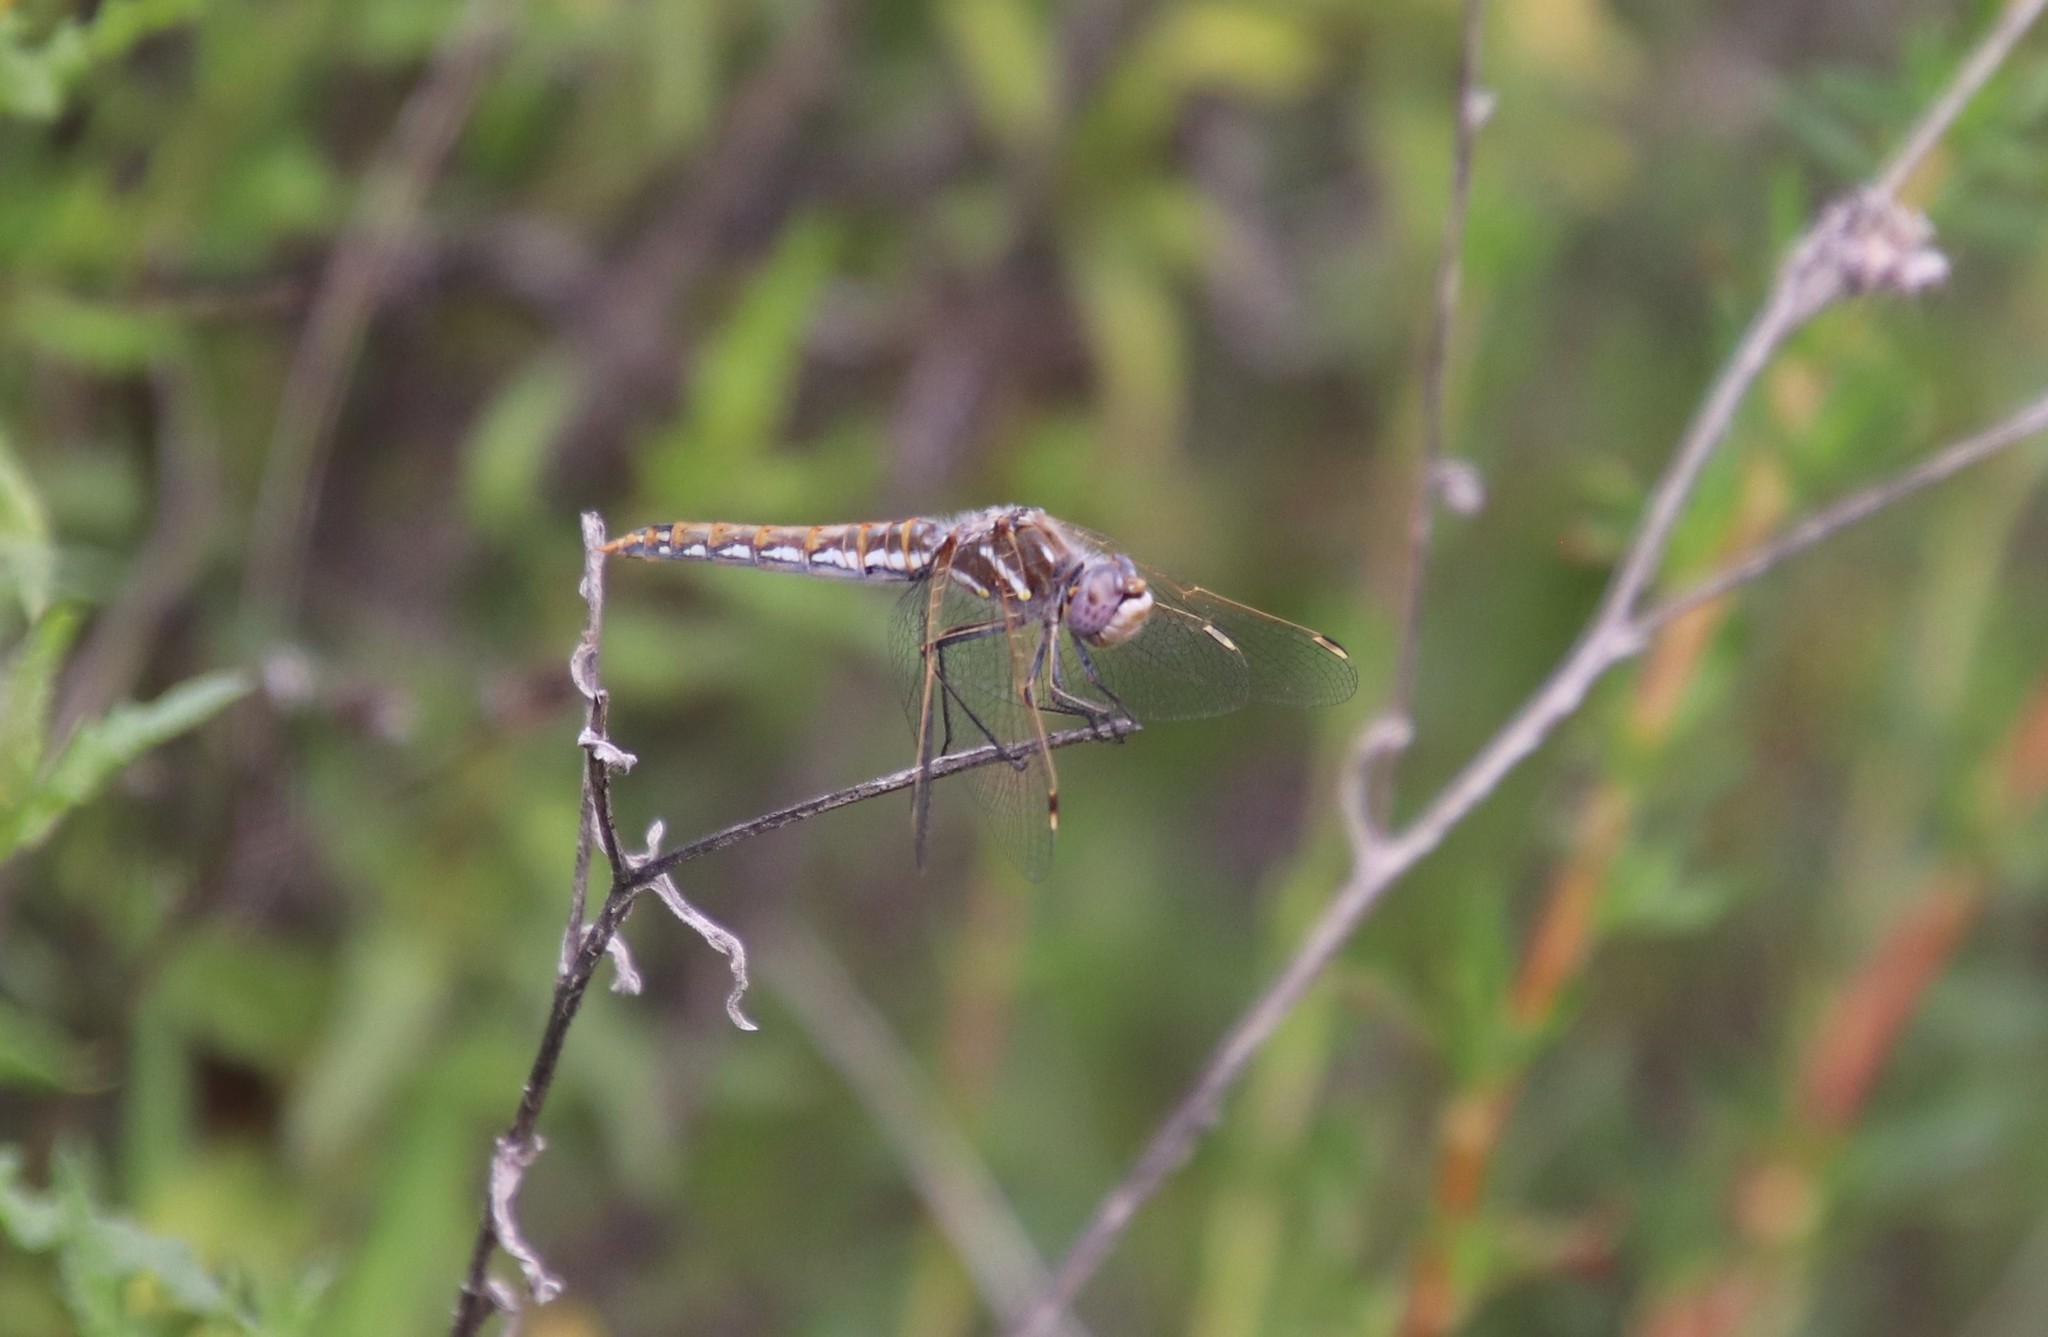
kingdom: Animalia
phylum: Arthropoda
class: Insecta
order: Odonata
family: Libellulidae
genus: Sympetrum
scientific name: Sympetrum corruptum
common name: Variegated meadowhawk
